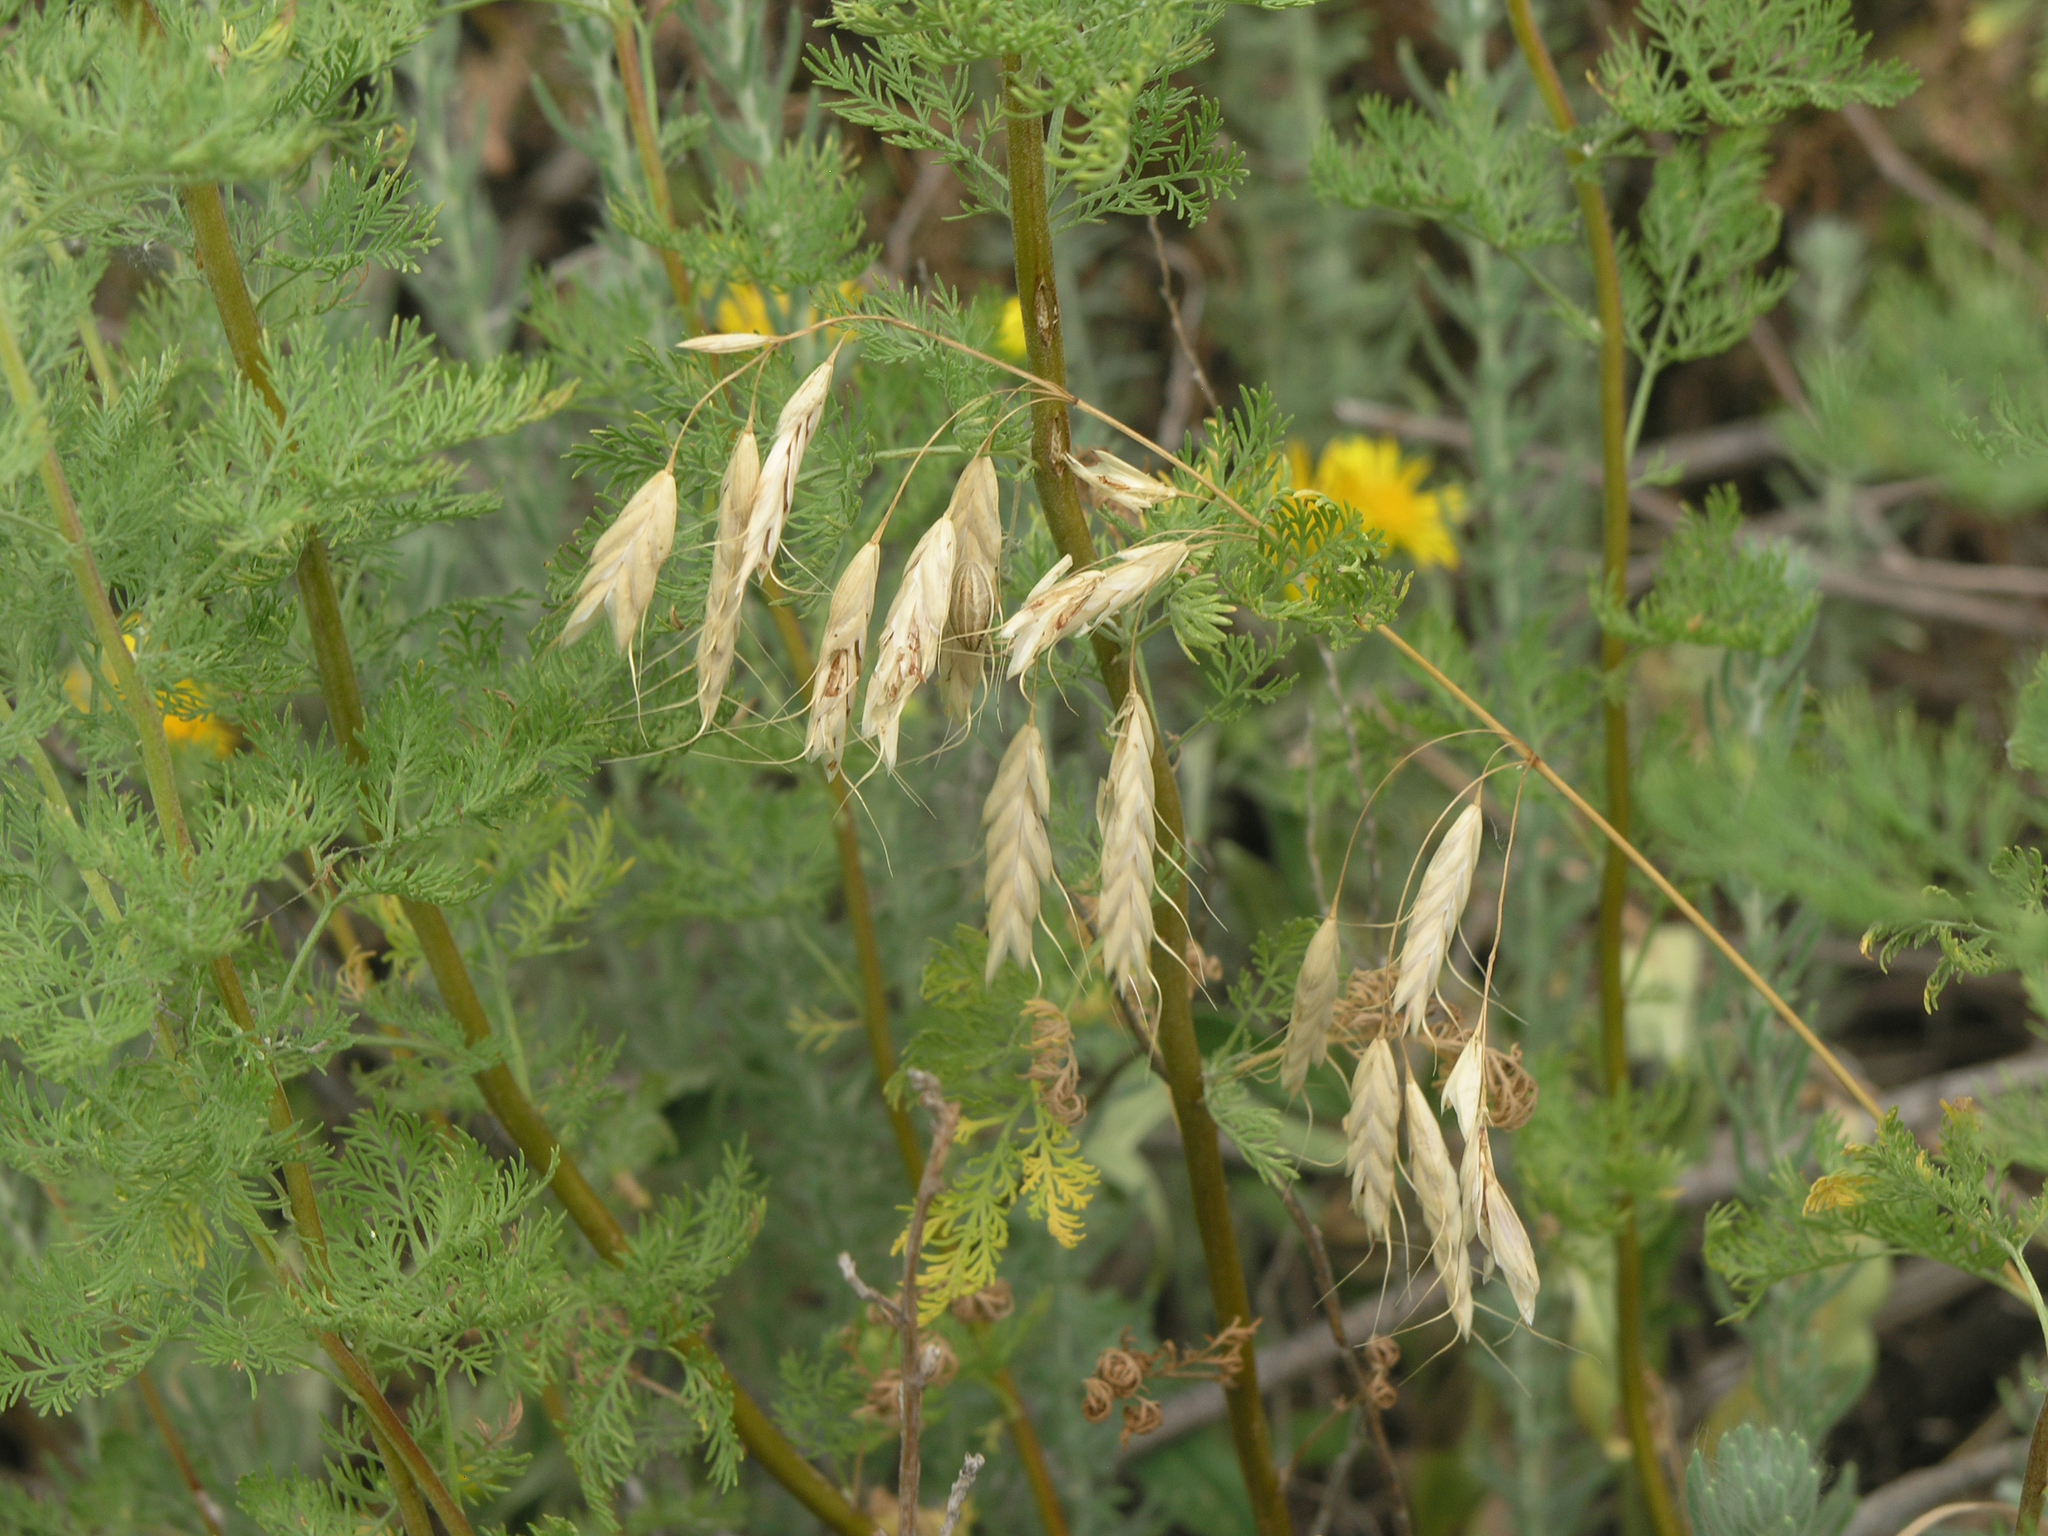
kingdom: Plantae
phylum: Tracheophyta
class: Liliopsida
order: Poales
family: Poaceae
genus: Bromus
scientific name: Bromus squarrosus
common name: Corn brome
